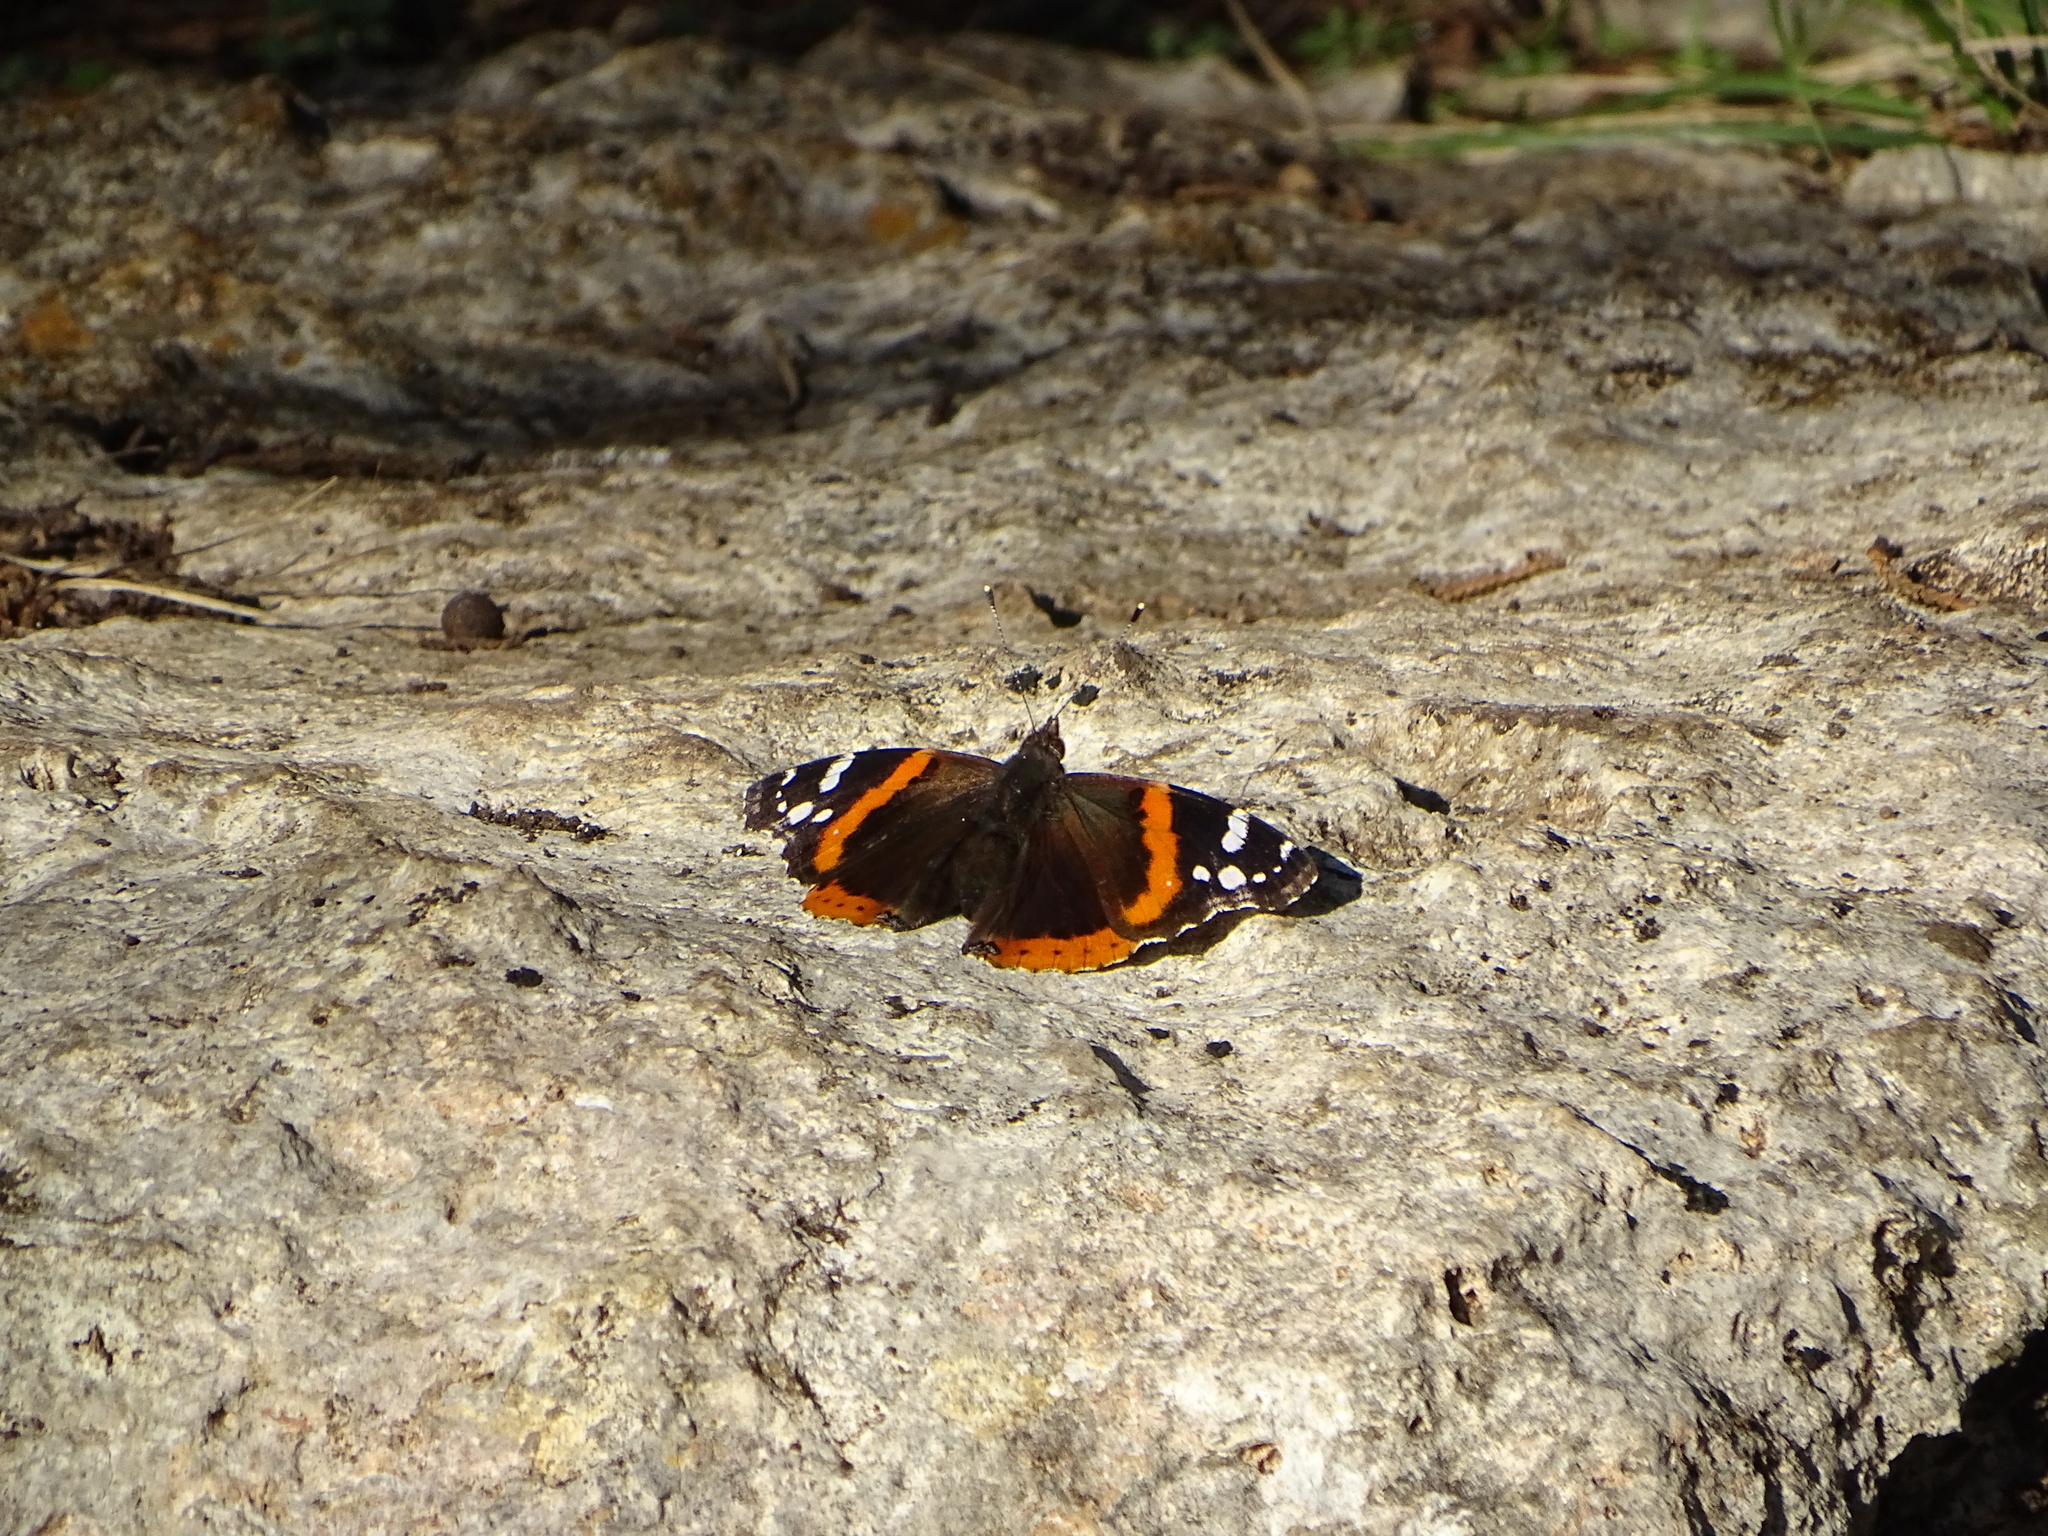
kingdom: Animalia
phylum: Arthropoda
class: Insecta
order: Lepidoptera
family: Nymphalidae
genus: Vanessa
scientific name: Vanessa atalanta
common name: Red admiral
